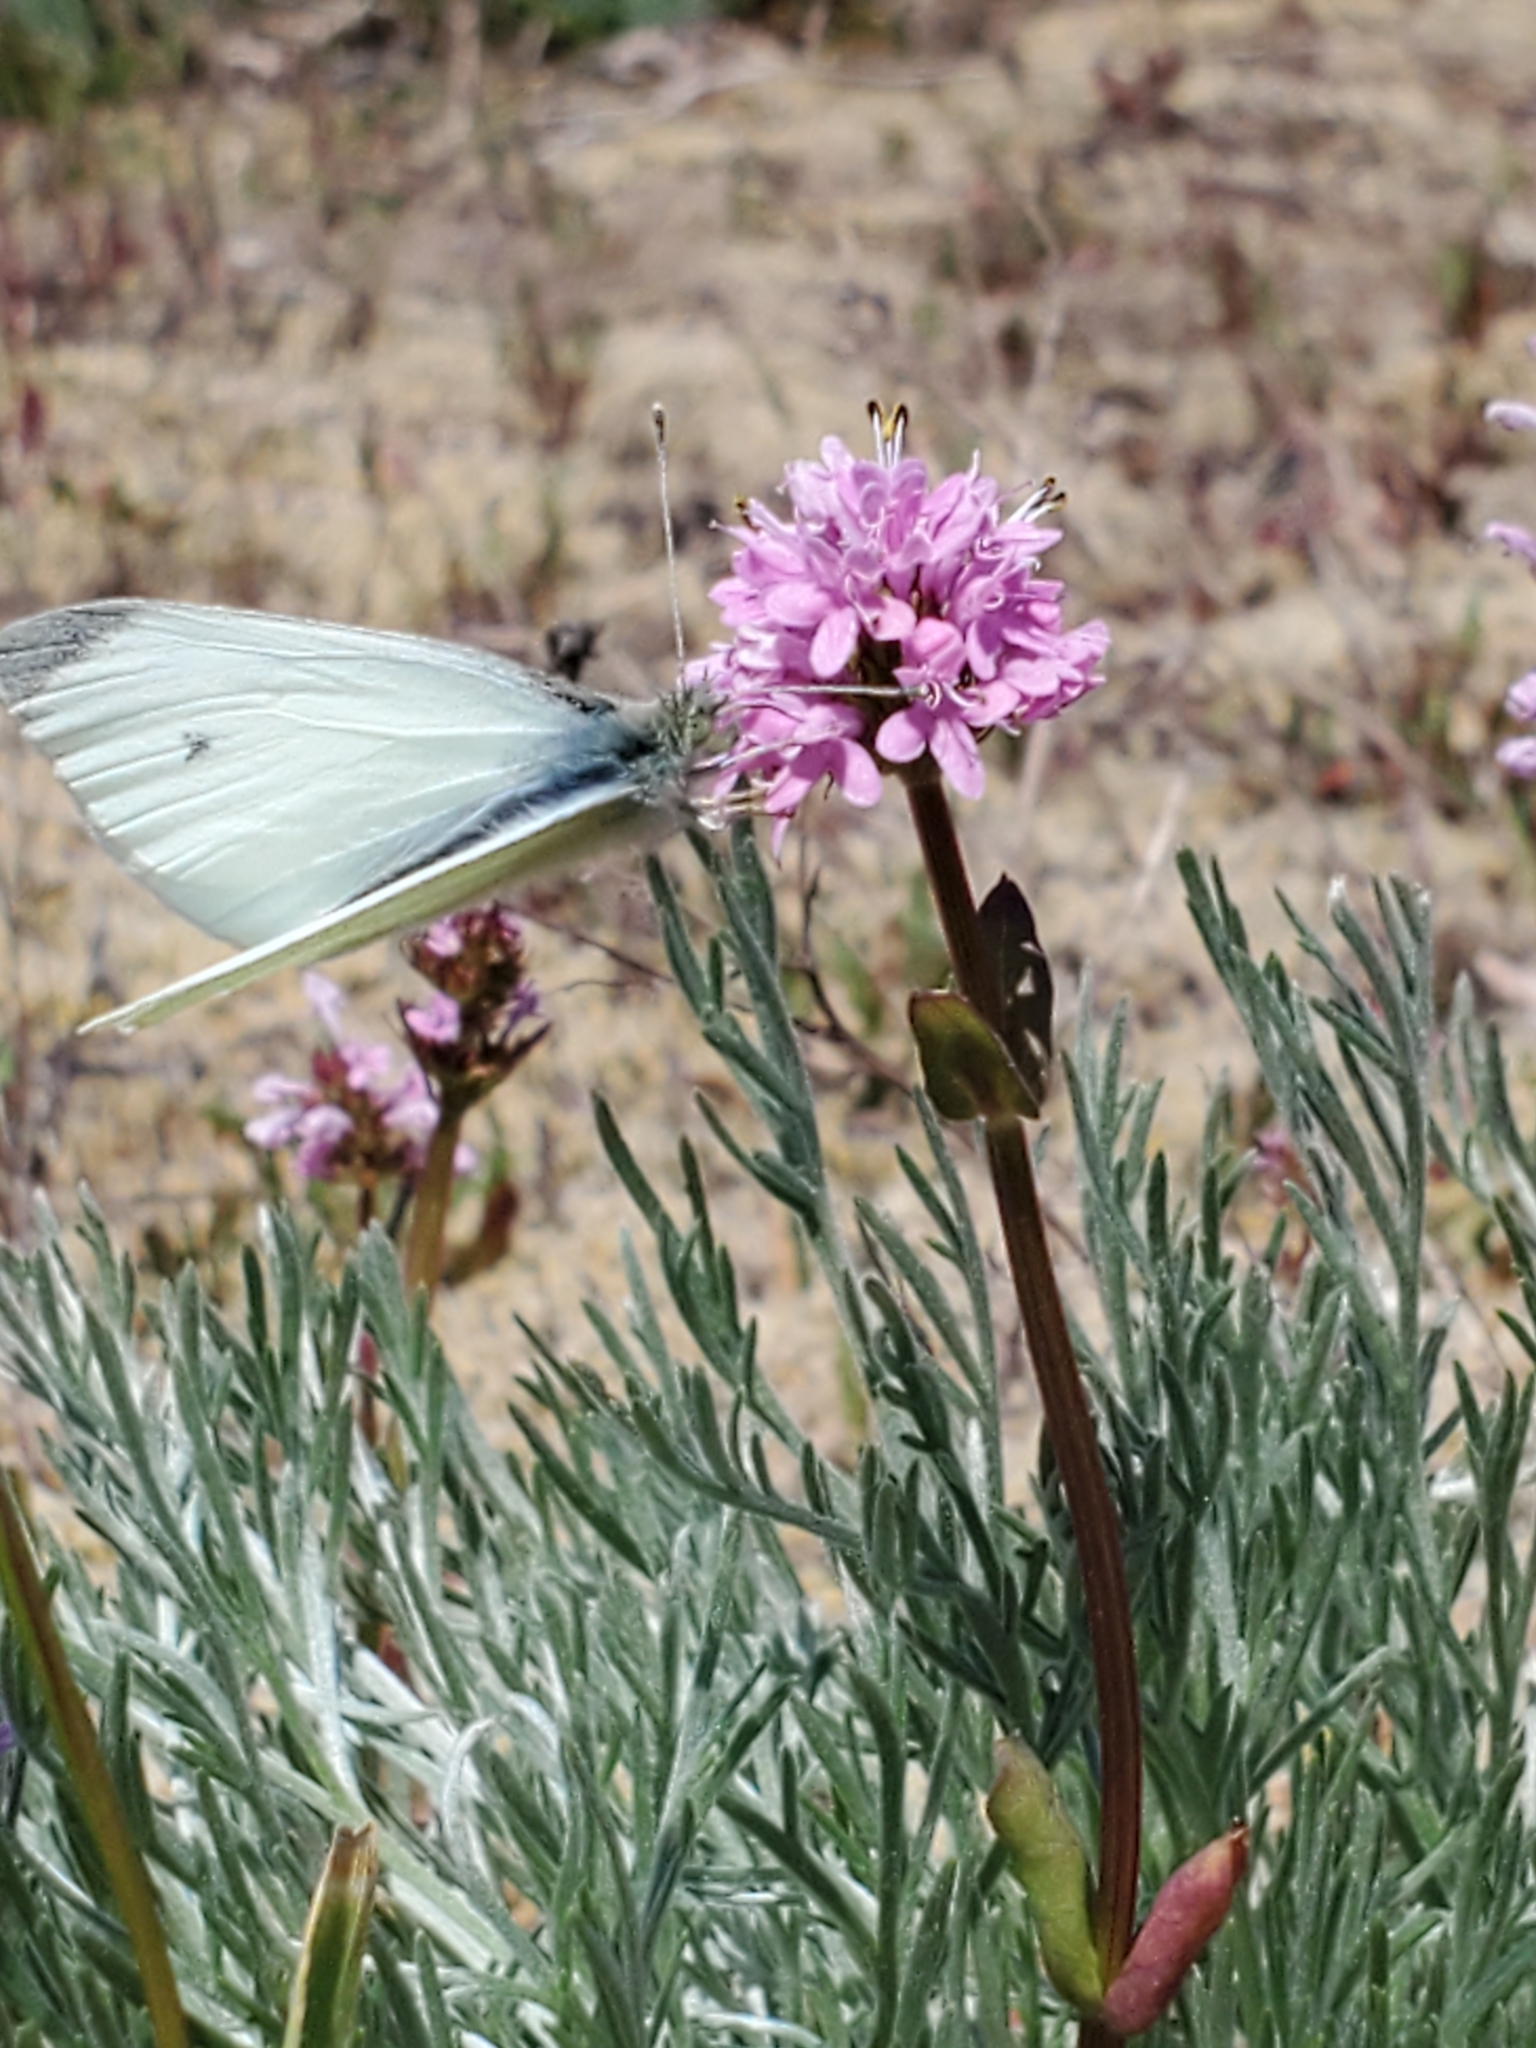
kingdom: Animalia
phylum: Arthropoda
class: Insecta
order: Lepidoptera
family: Pieridae
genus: Pieris
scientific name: Pieris rapae
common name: Small white
